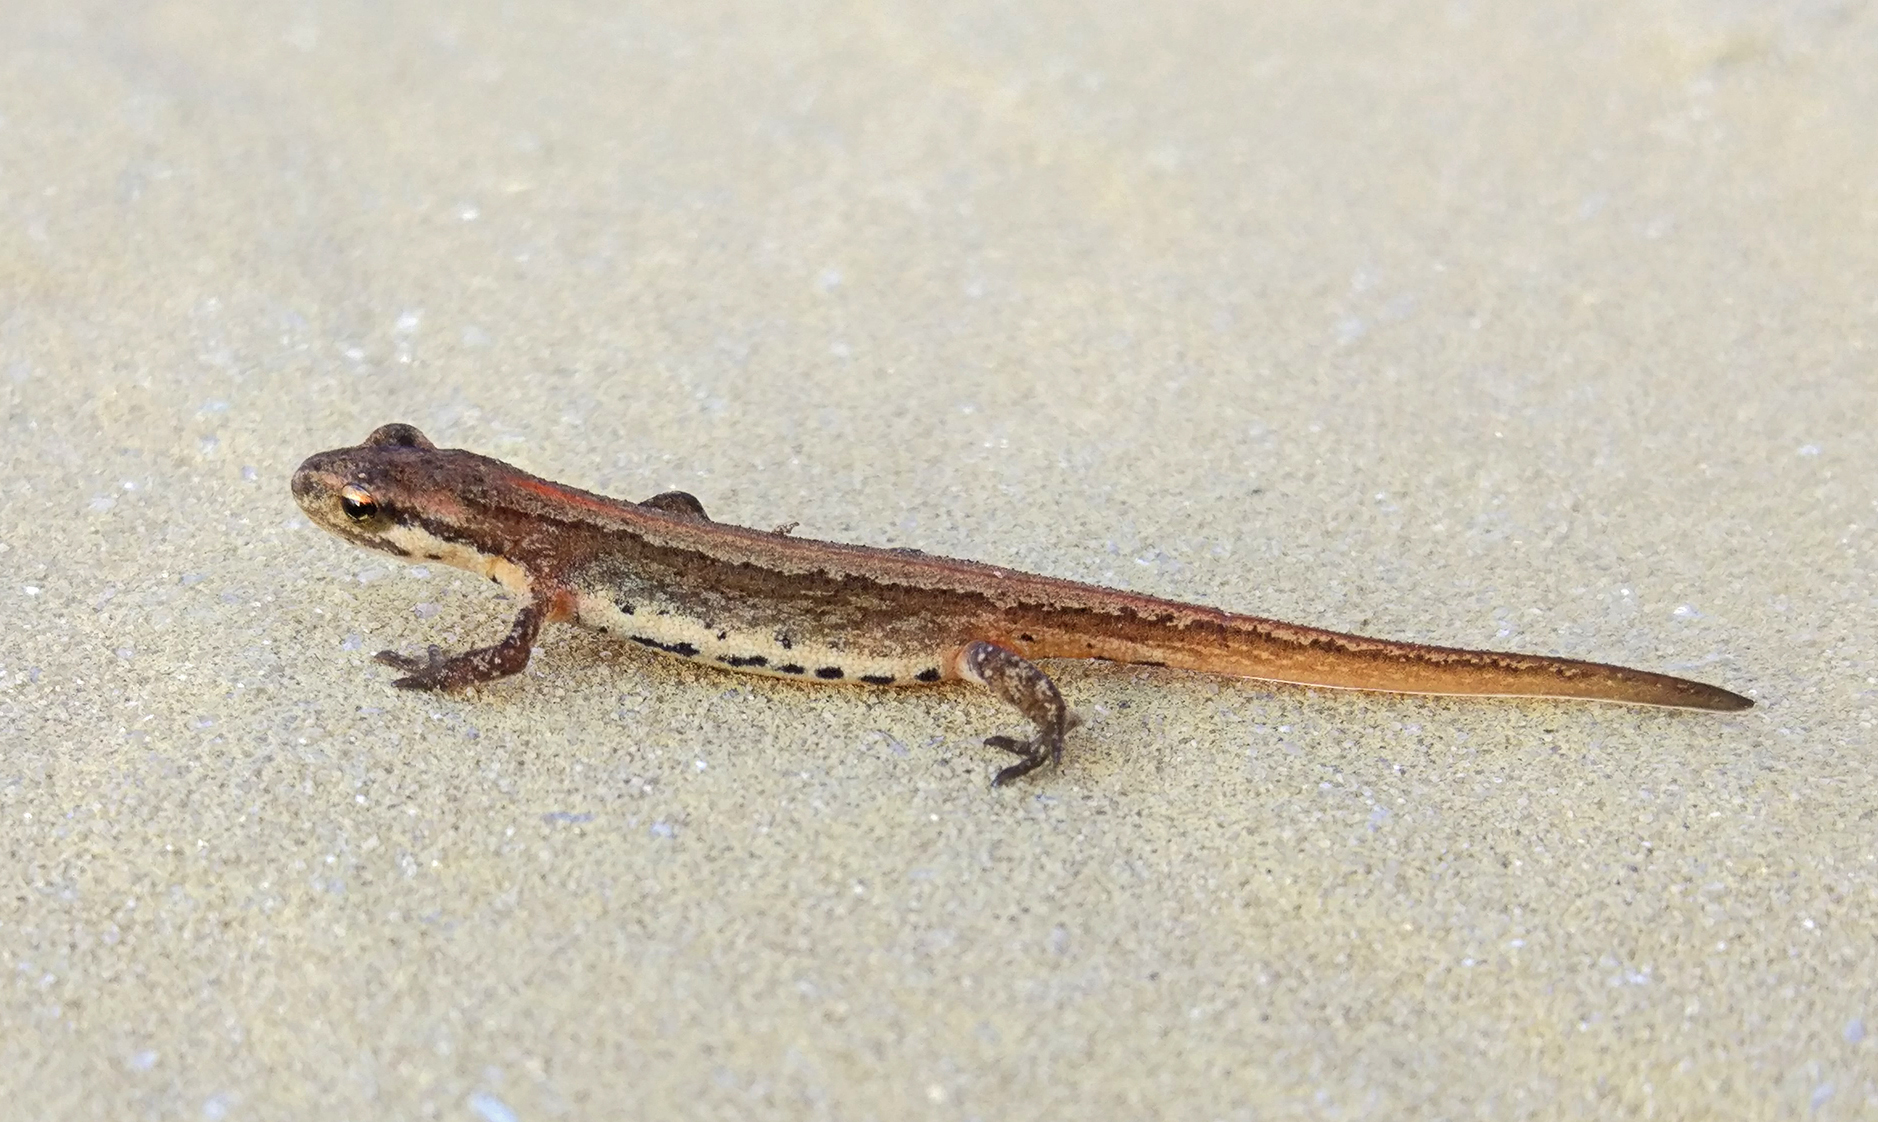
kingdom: Animalia
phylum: Chordata
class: Amphibia
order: Caudata
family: Salamandridae
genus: Lissotriton
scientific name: Lissotriton schmidtleri
